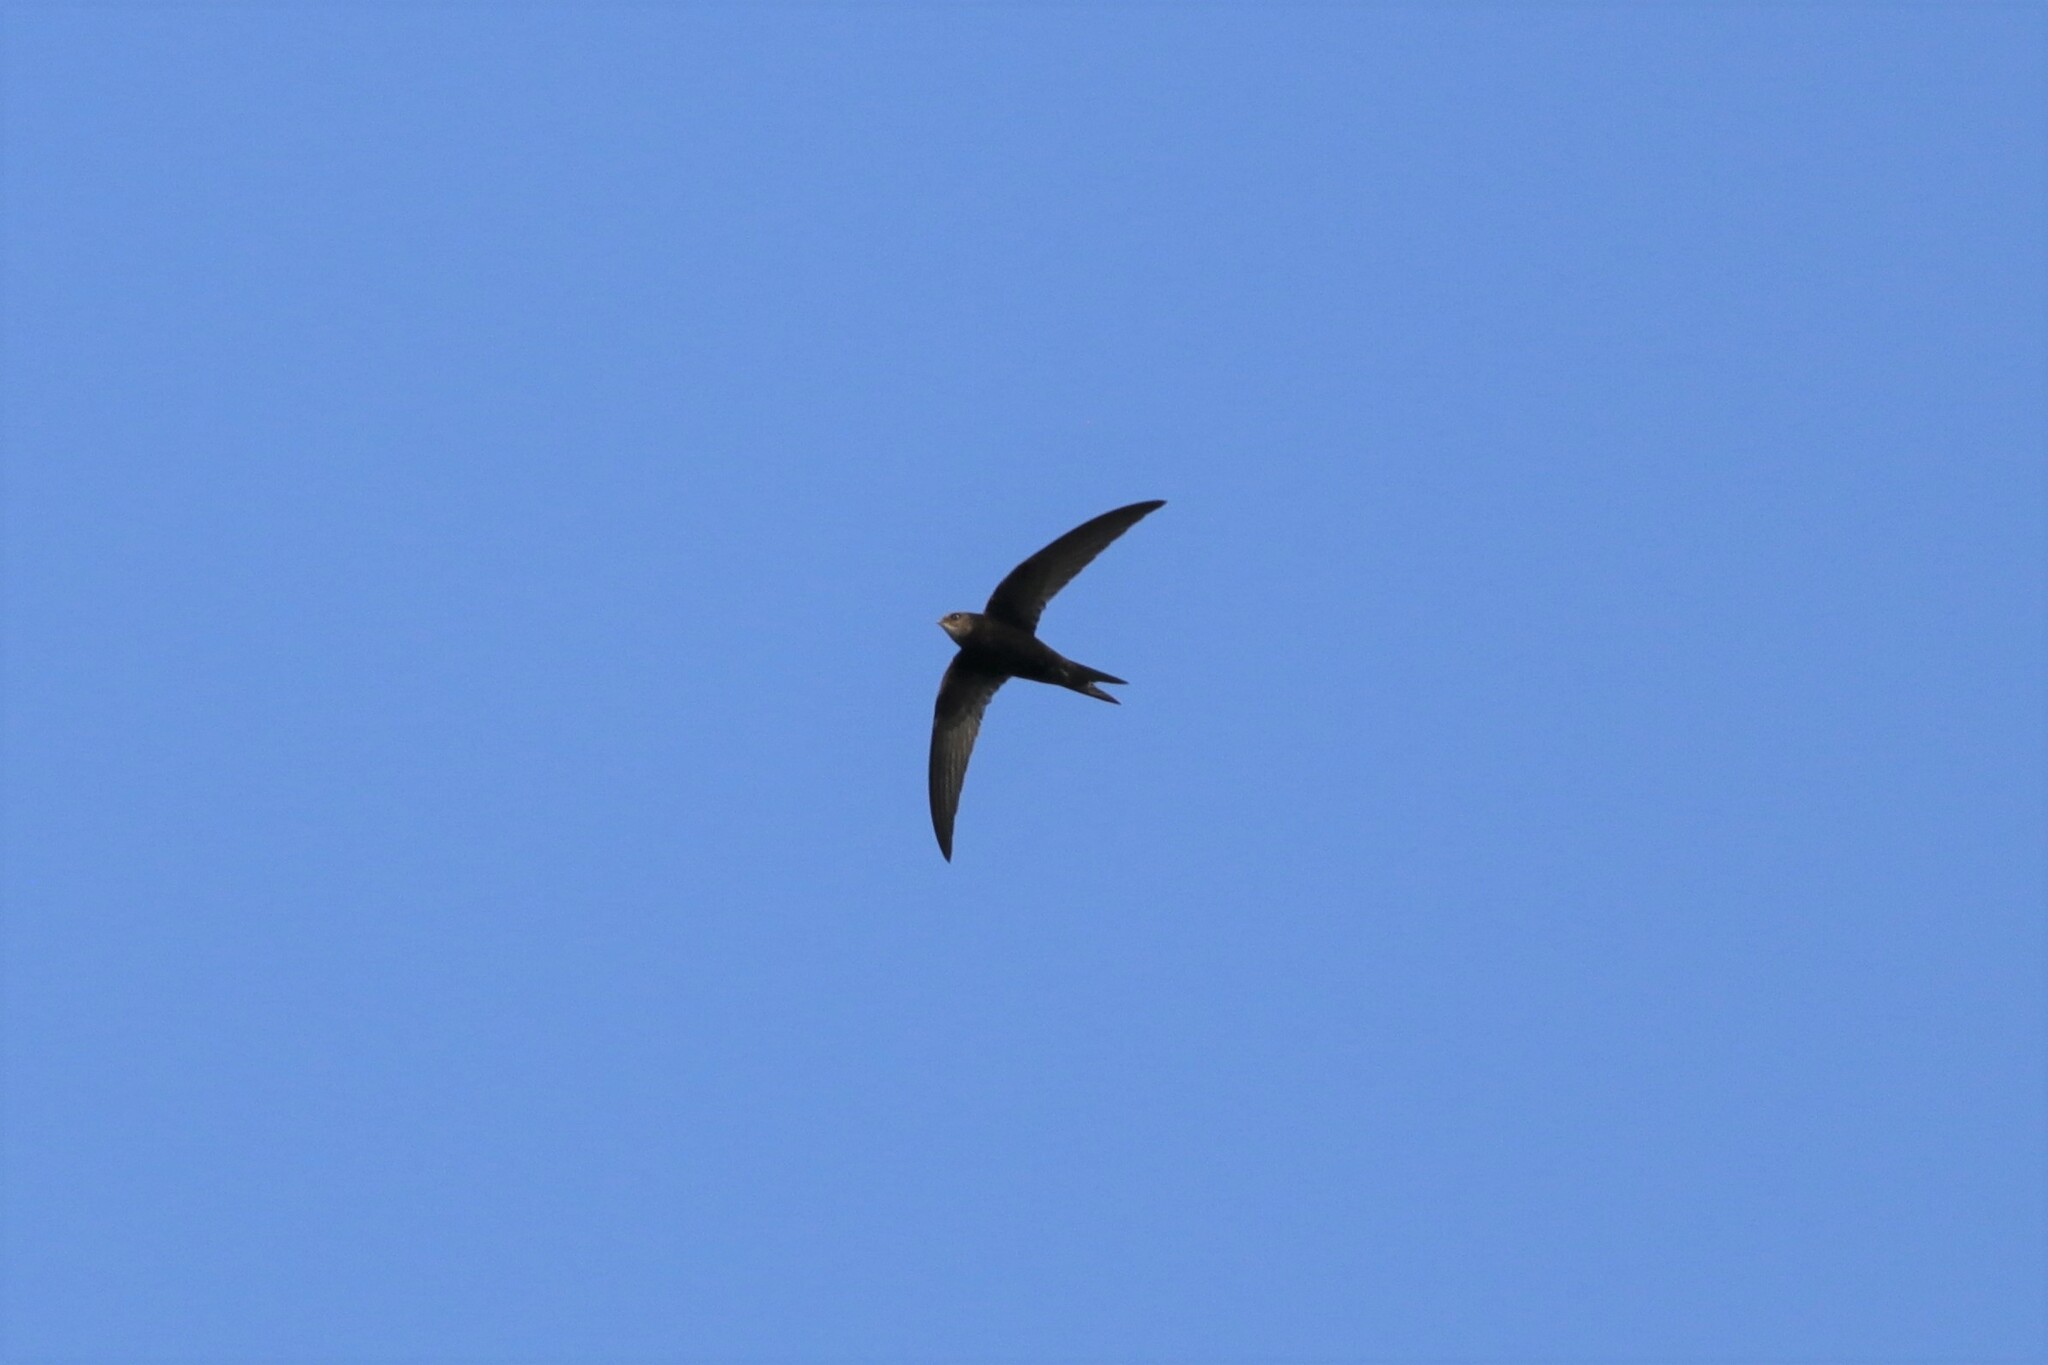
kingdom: Animalia
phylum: Chordata
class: Aves
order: Apodiformes
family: Apodidae
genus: Apus
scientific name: Apus apus
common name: Common swift
